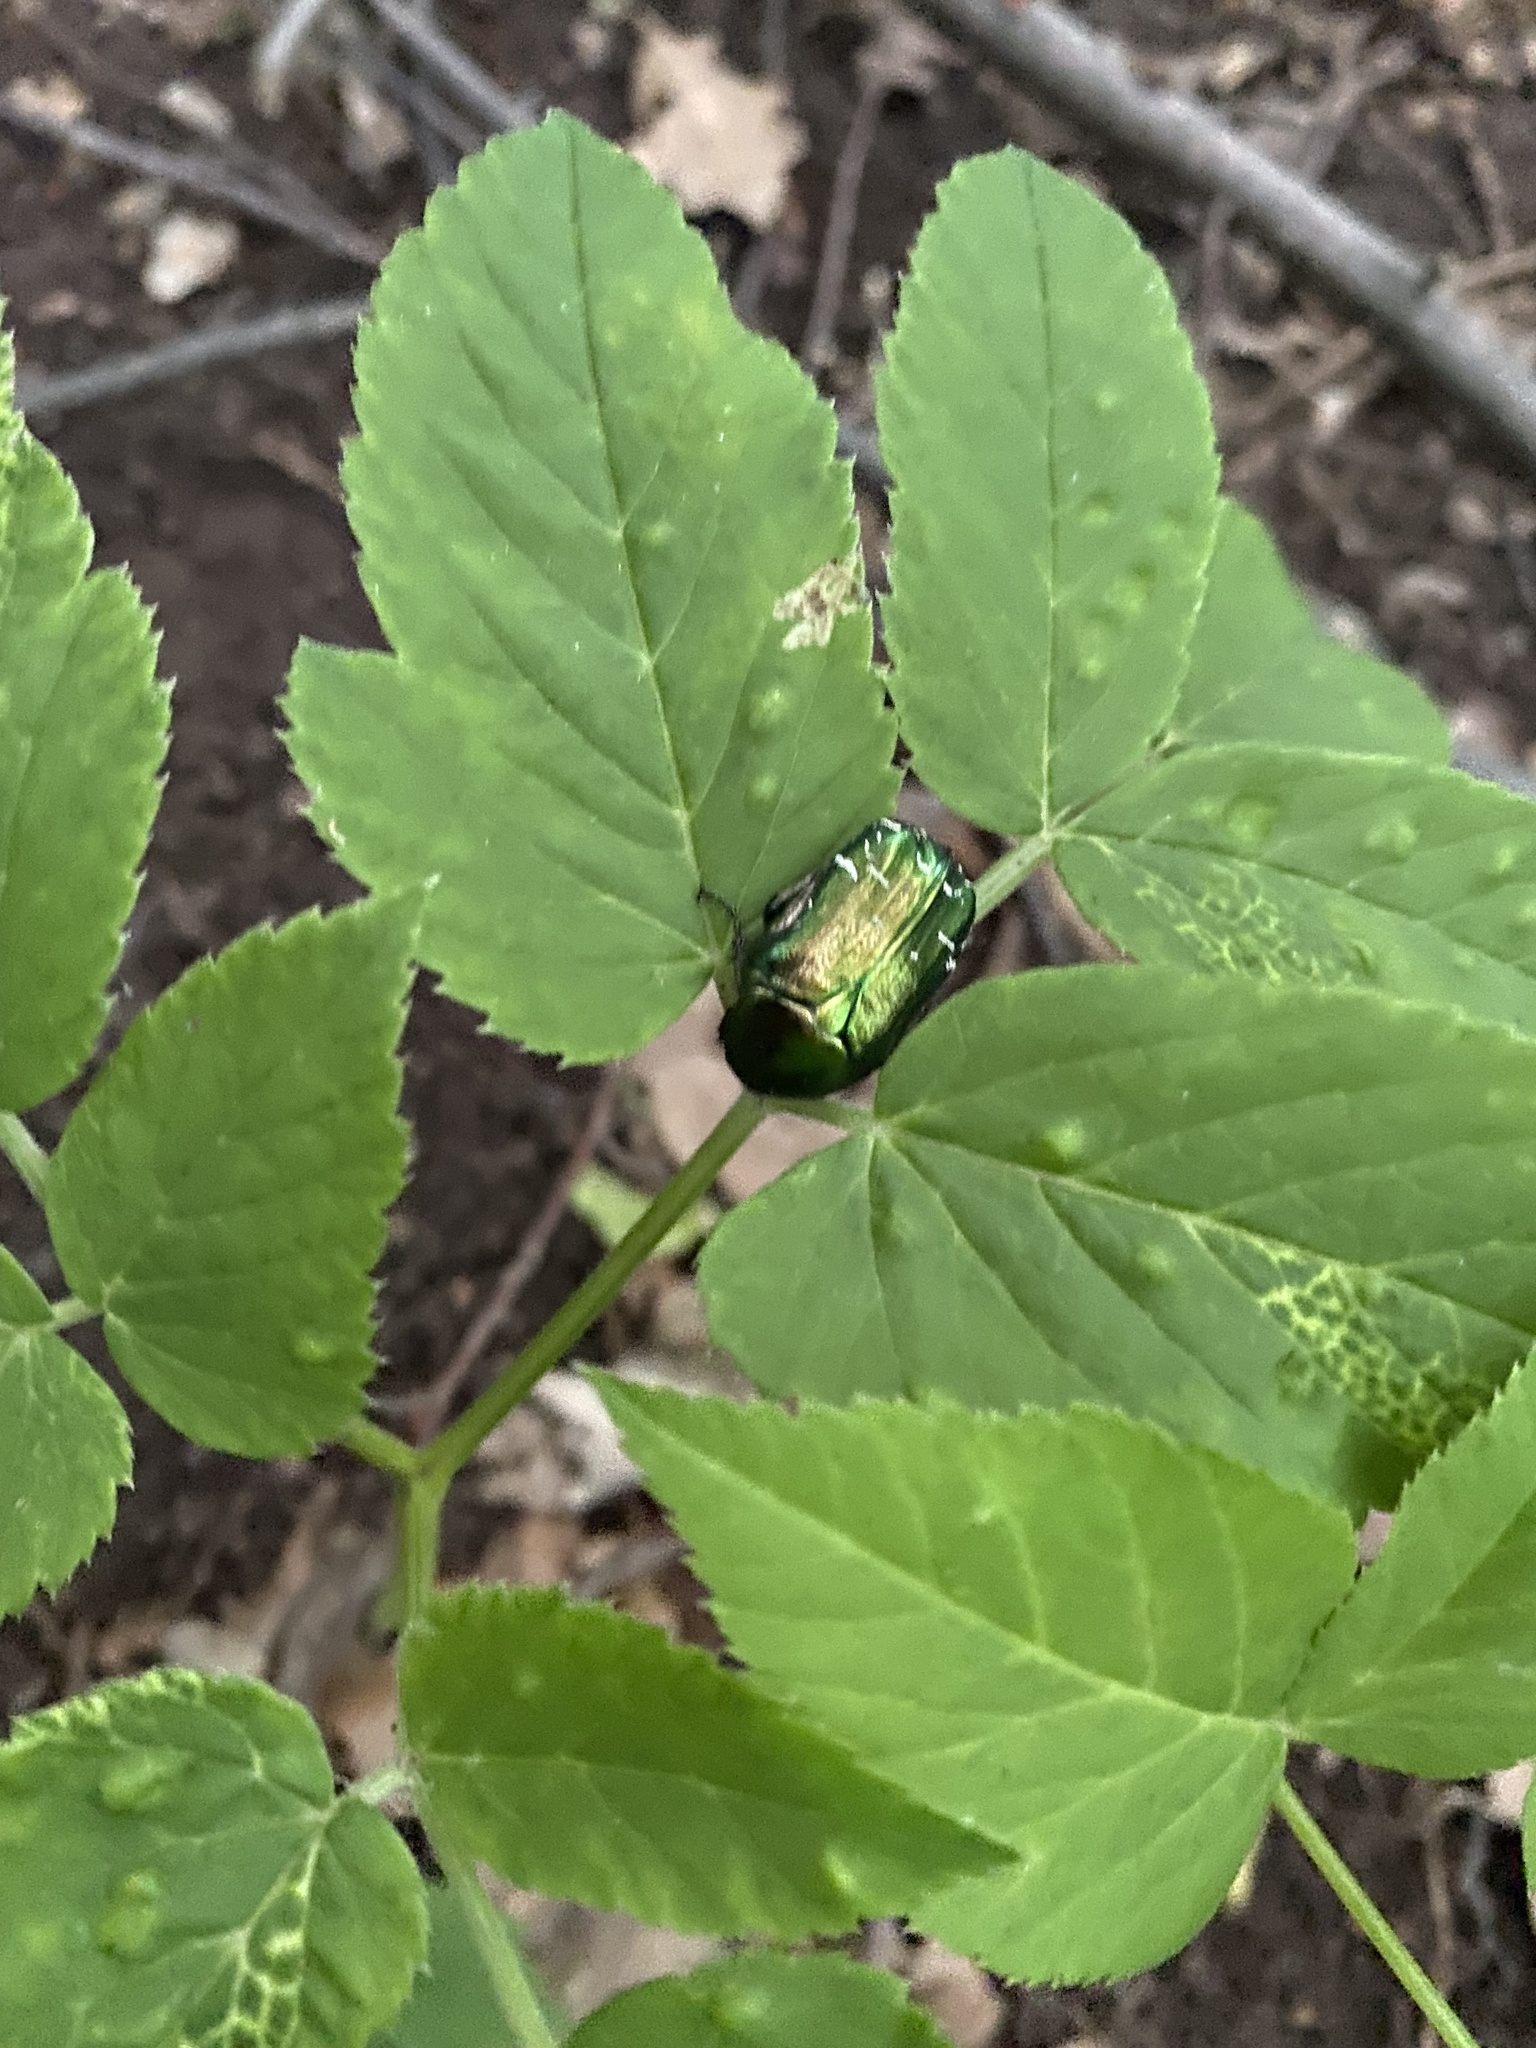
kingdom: Animalia
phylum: Arthropoda
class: Insecta
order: Coleoptera
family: Scarabaeidae
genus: Cetonia
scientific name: Cetonia aurata
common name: Rose chafer
